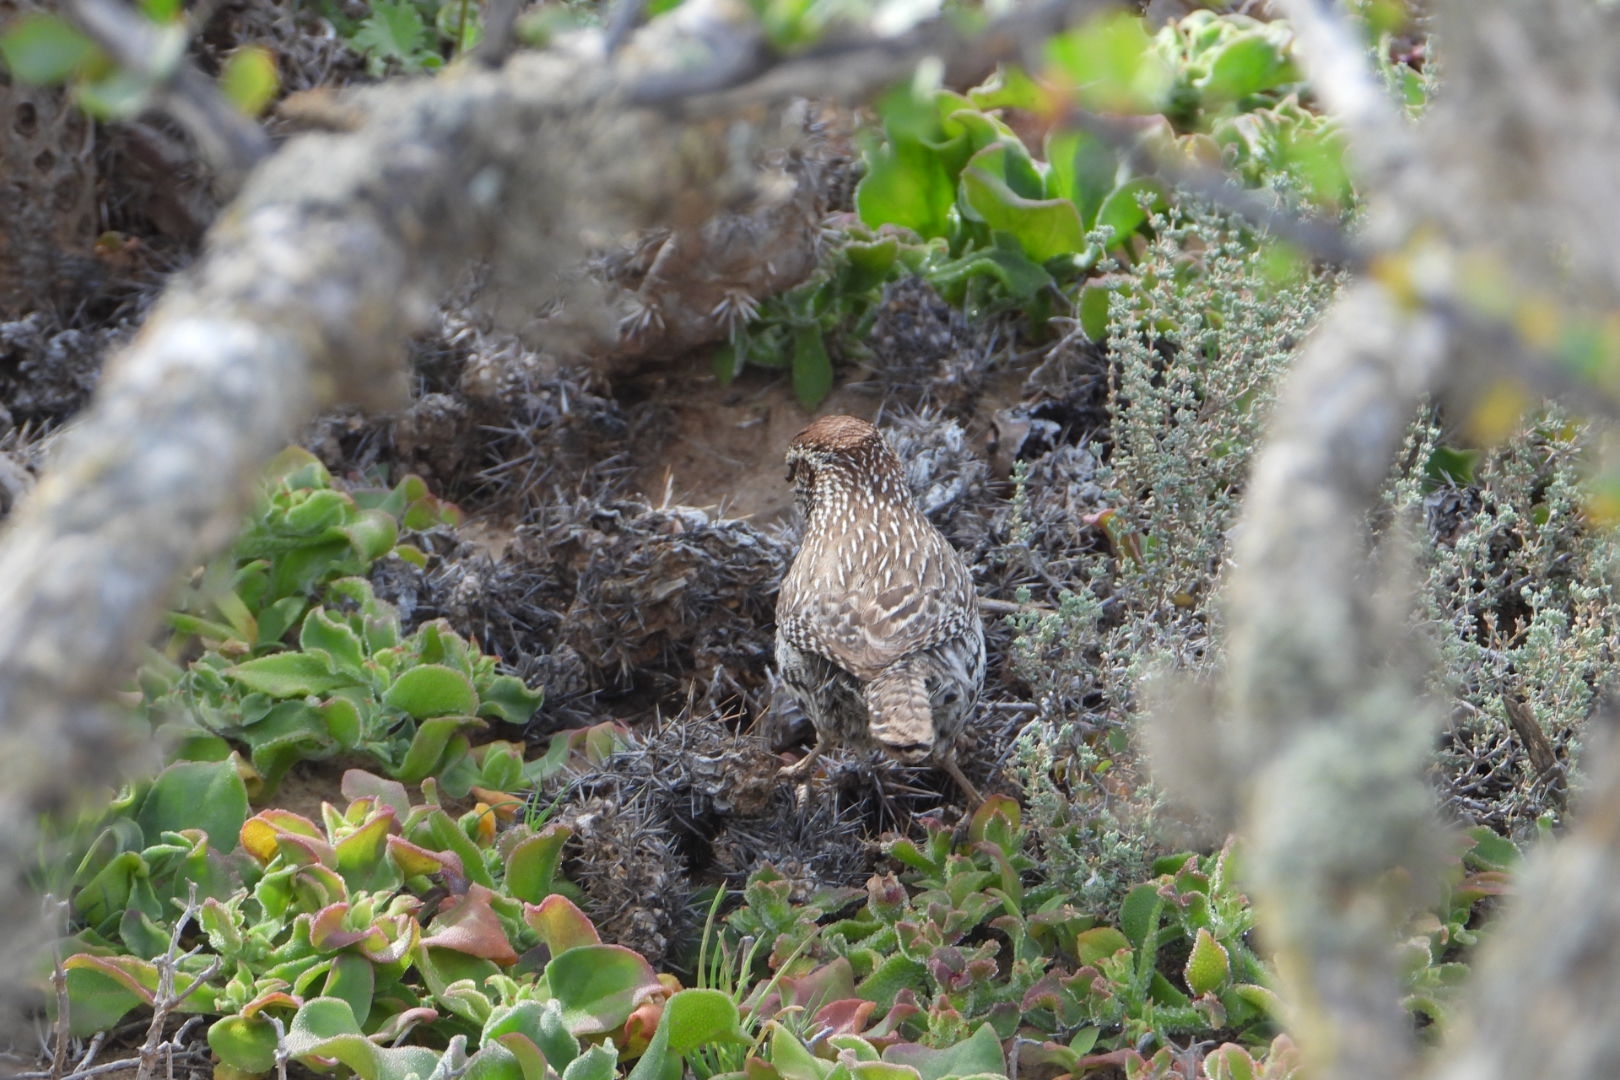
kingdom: Animalia
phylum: Chordata
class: Aves
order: Passeriformes
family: Troglodytidae
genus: Campylorhynchus
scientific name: Campylorhynchus brunneicapillus
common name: Cactus wren
